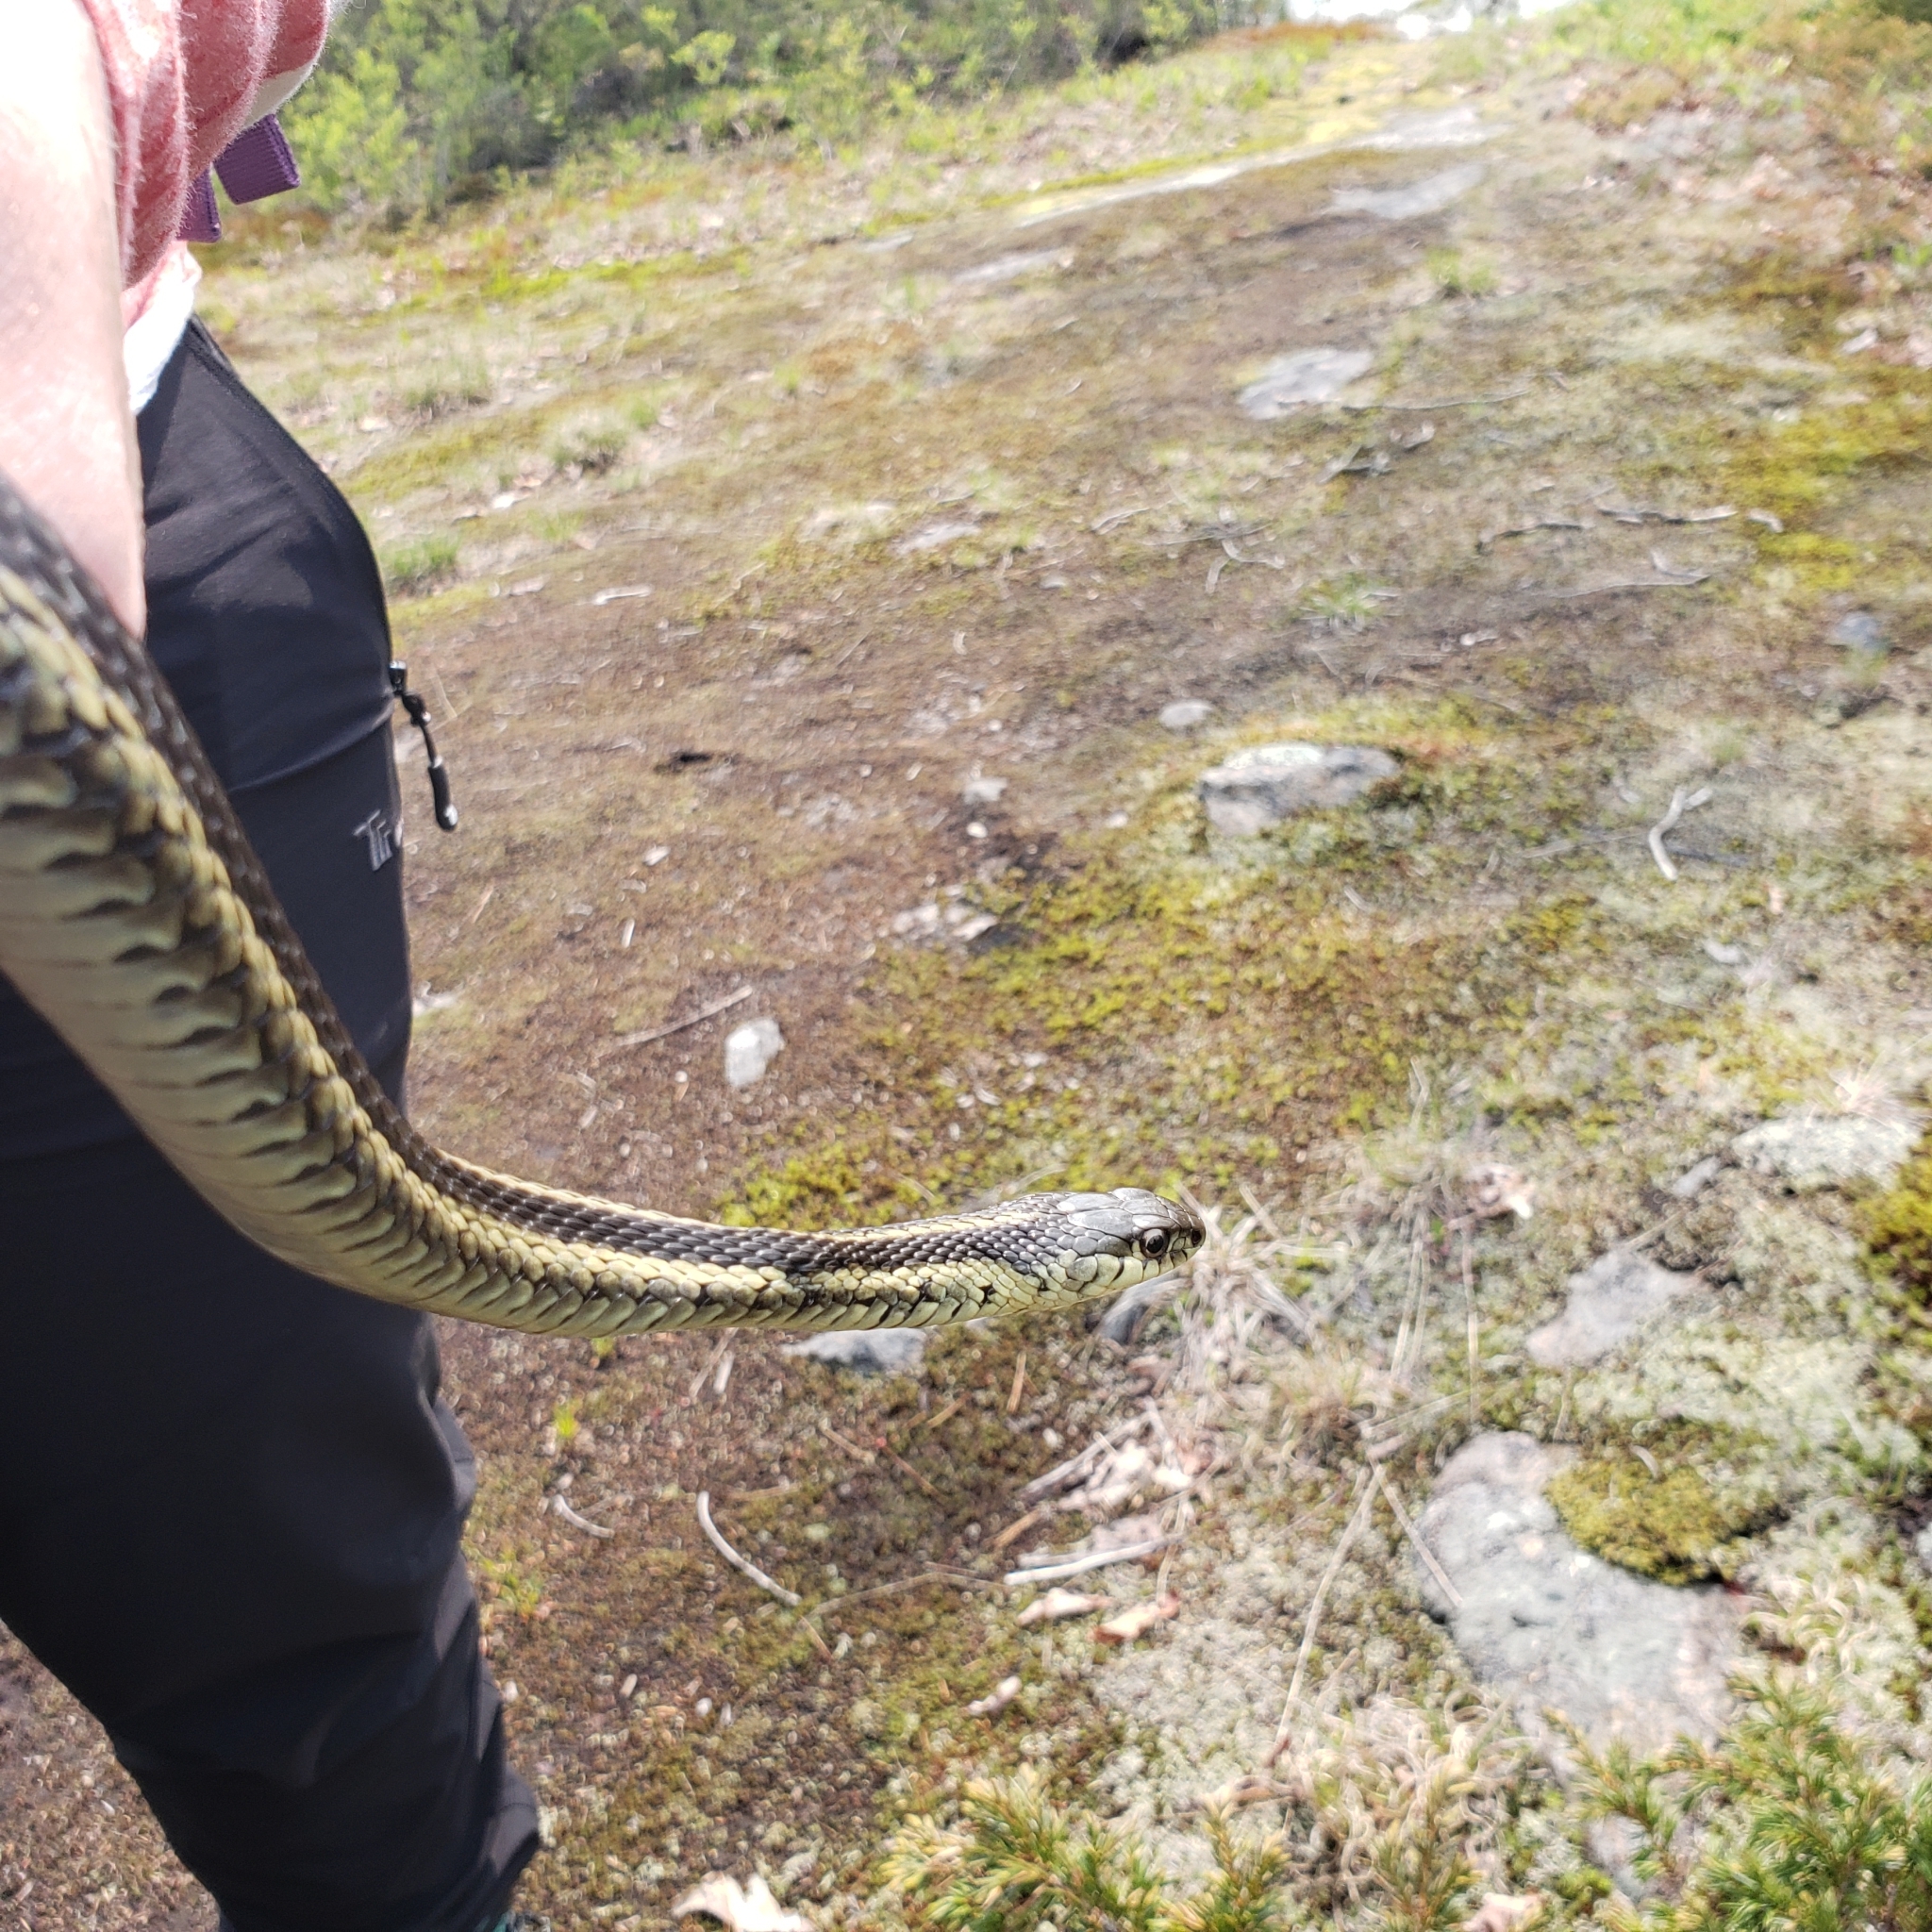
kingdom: Animalia
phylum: Chordata
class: Squamata
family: Colubridae
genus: Thamnophis
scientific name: Thamnophis sirtalis
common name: Common garter snake
